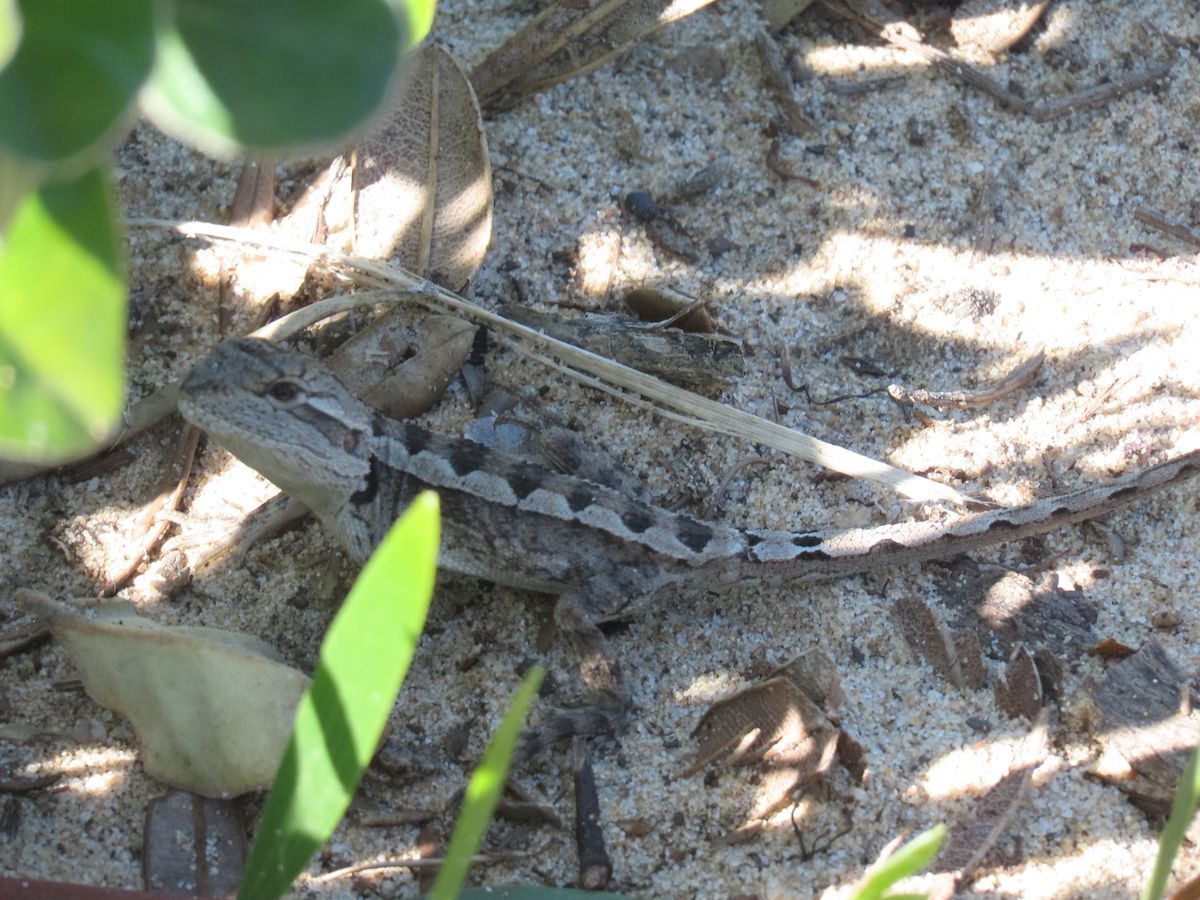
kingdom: Animalia
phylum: Chordata
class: Squamata
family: Agamidae
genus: Amphibolurus
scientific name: Amphibolurus muricatus
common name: Jacky lizard
